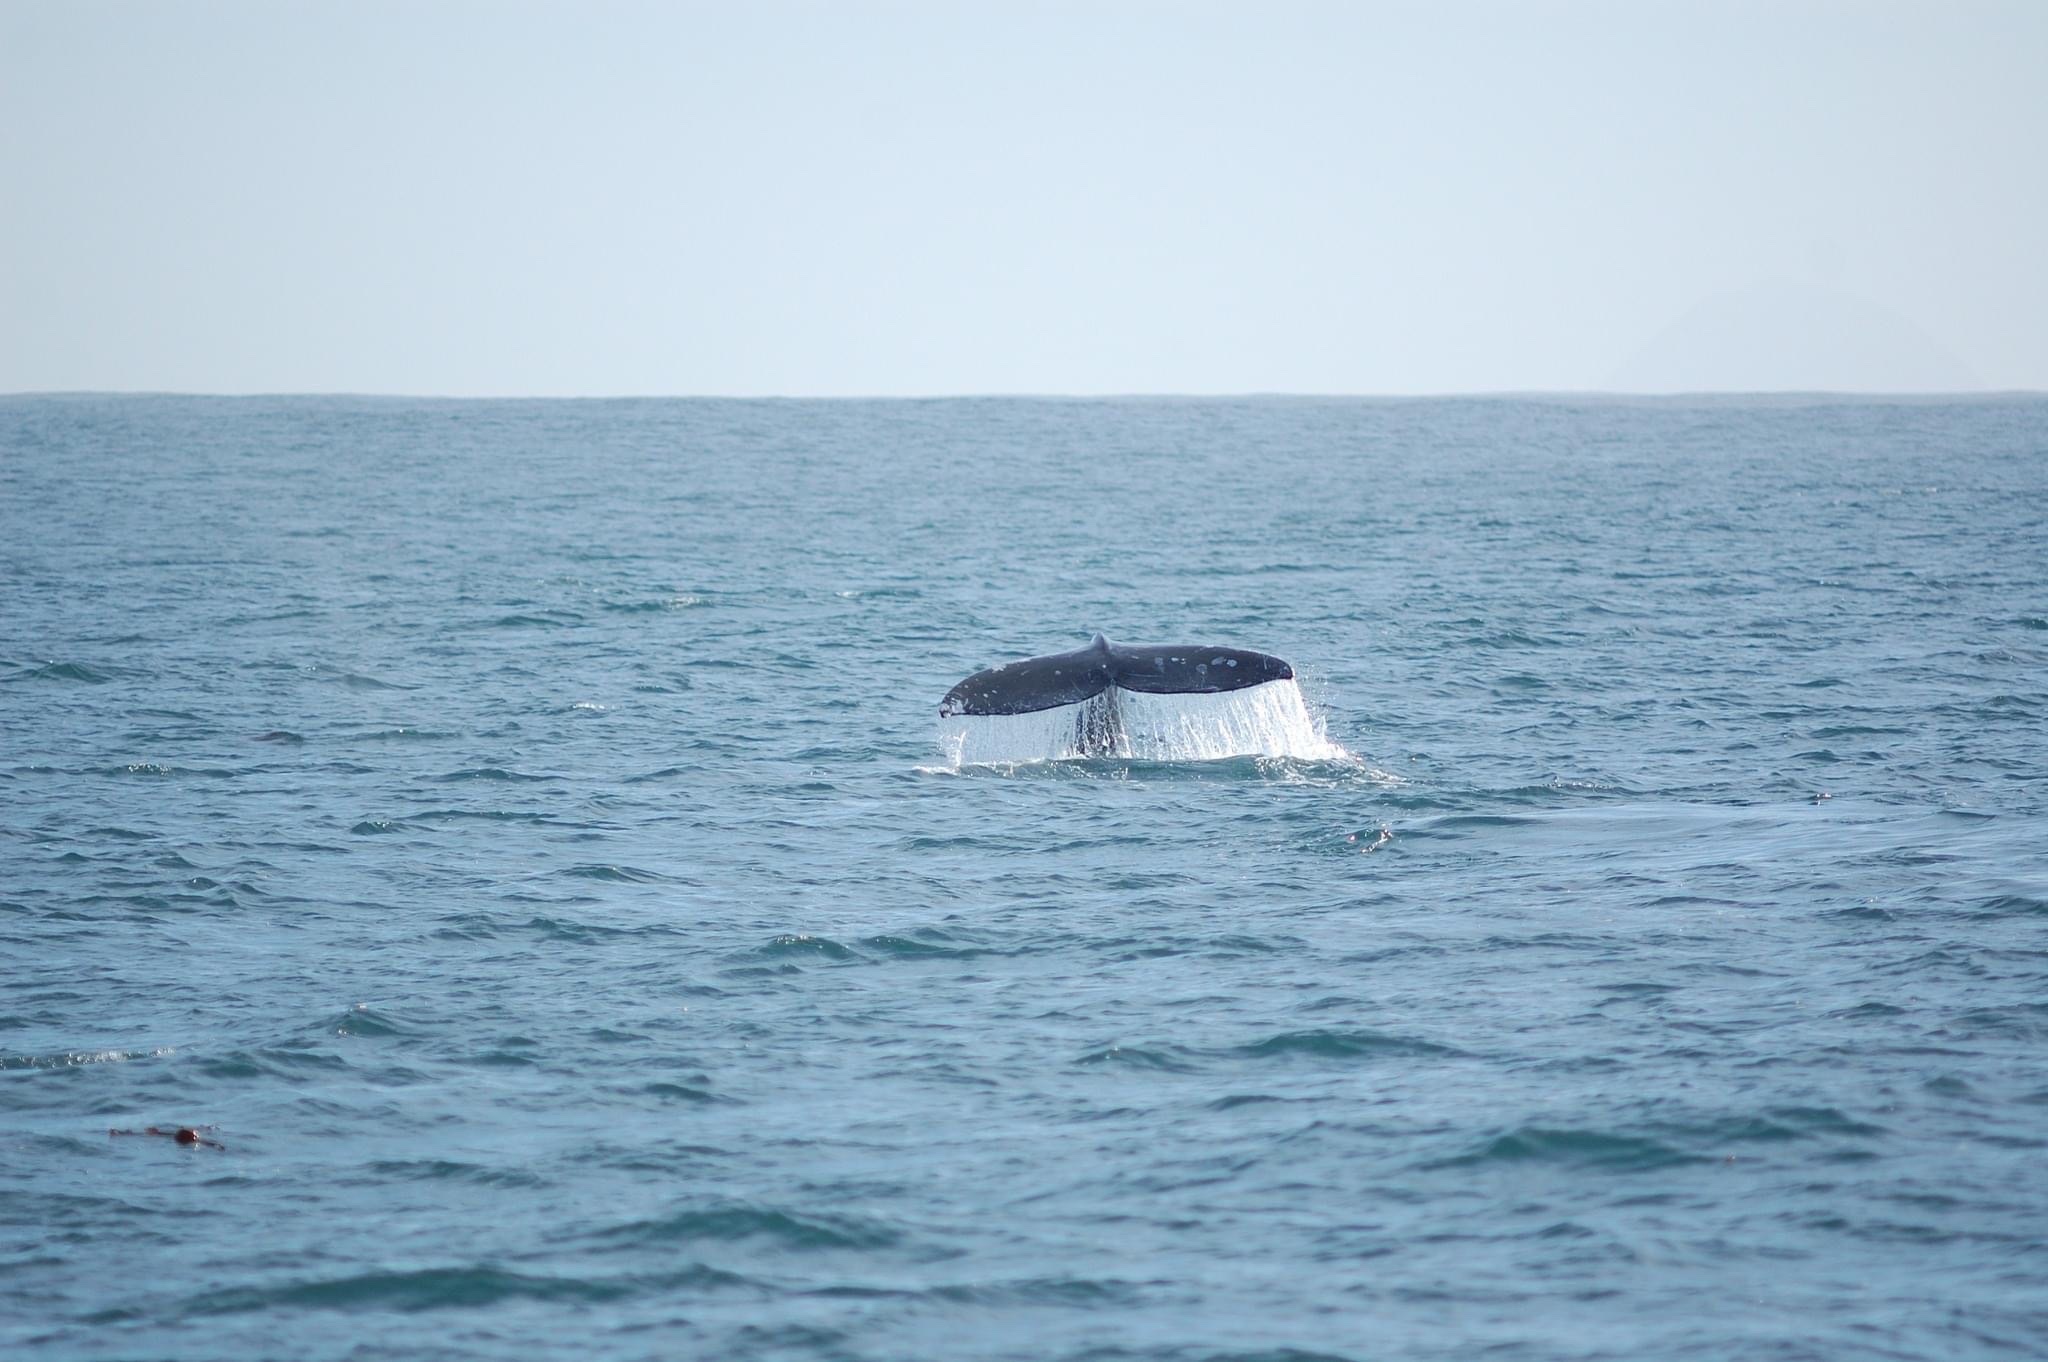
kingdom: Animalia
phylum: Chordata
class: Mammalia
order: Cetacea
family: Eschrichtiidae
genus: Eschrichtius
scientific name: Eschrichtius robustus
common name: Gray whale
